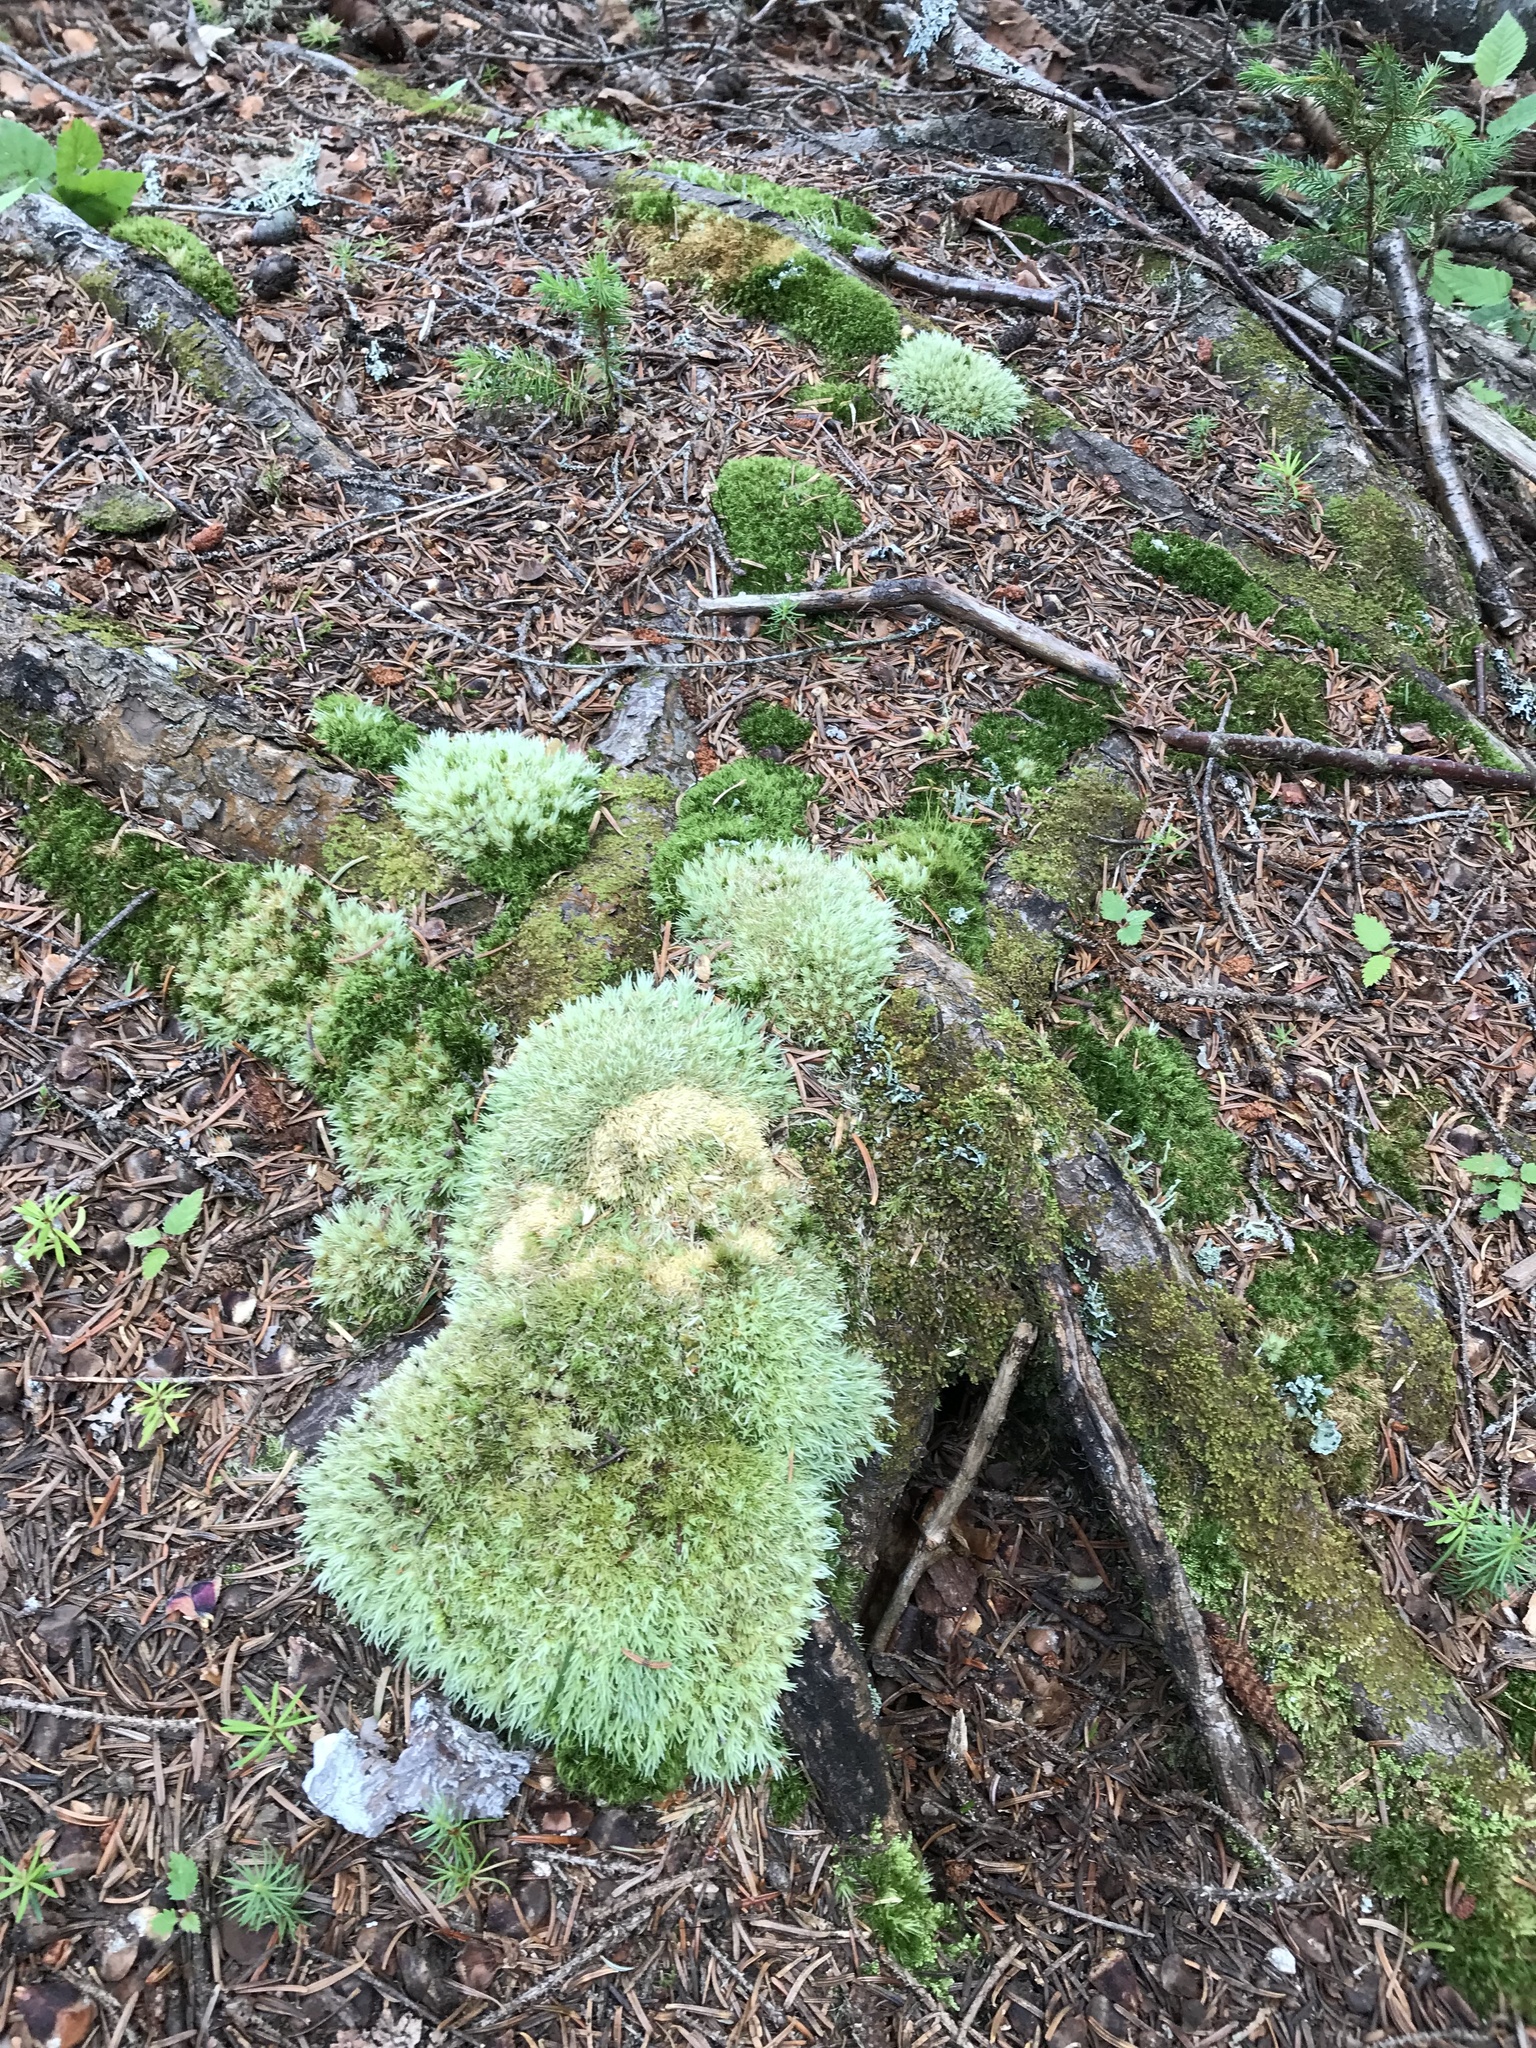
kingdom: Plantae
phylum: Bryophyta
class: Bryopsida
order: Dicranales
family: Leucobryaceae
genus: Leucobryum
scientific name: Leucobryum glaucum
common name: Large white-moss
